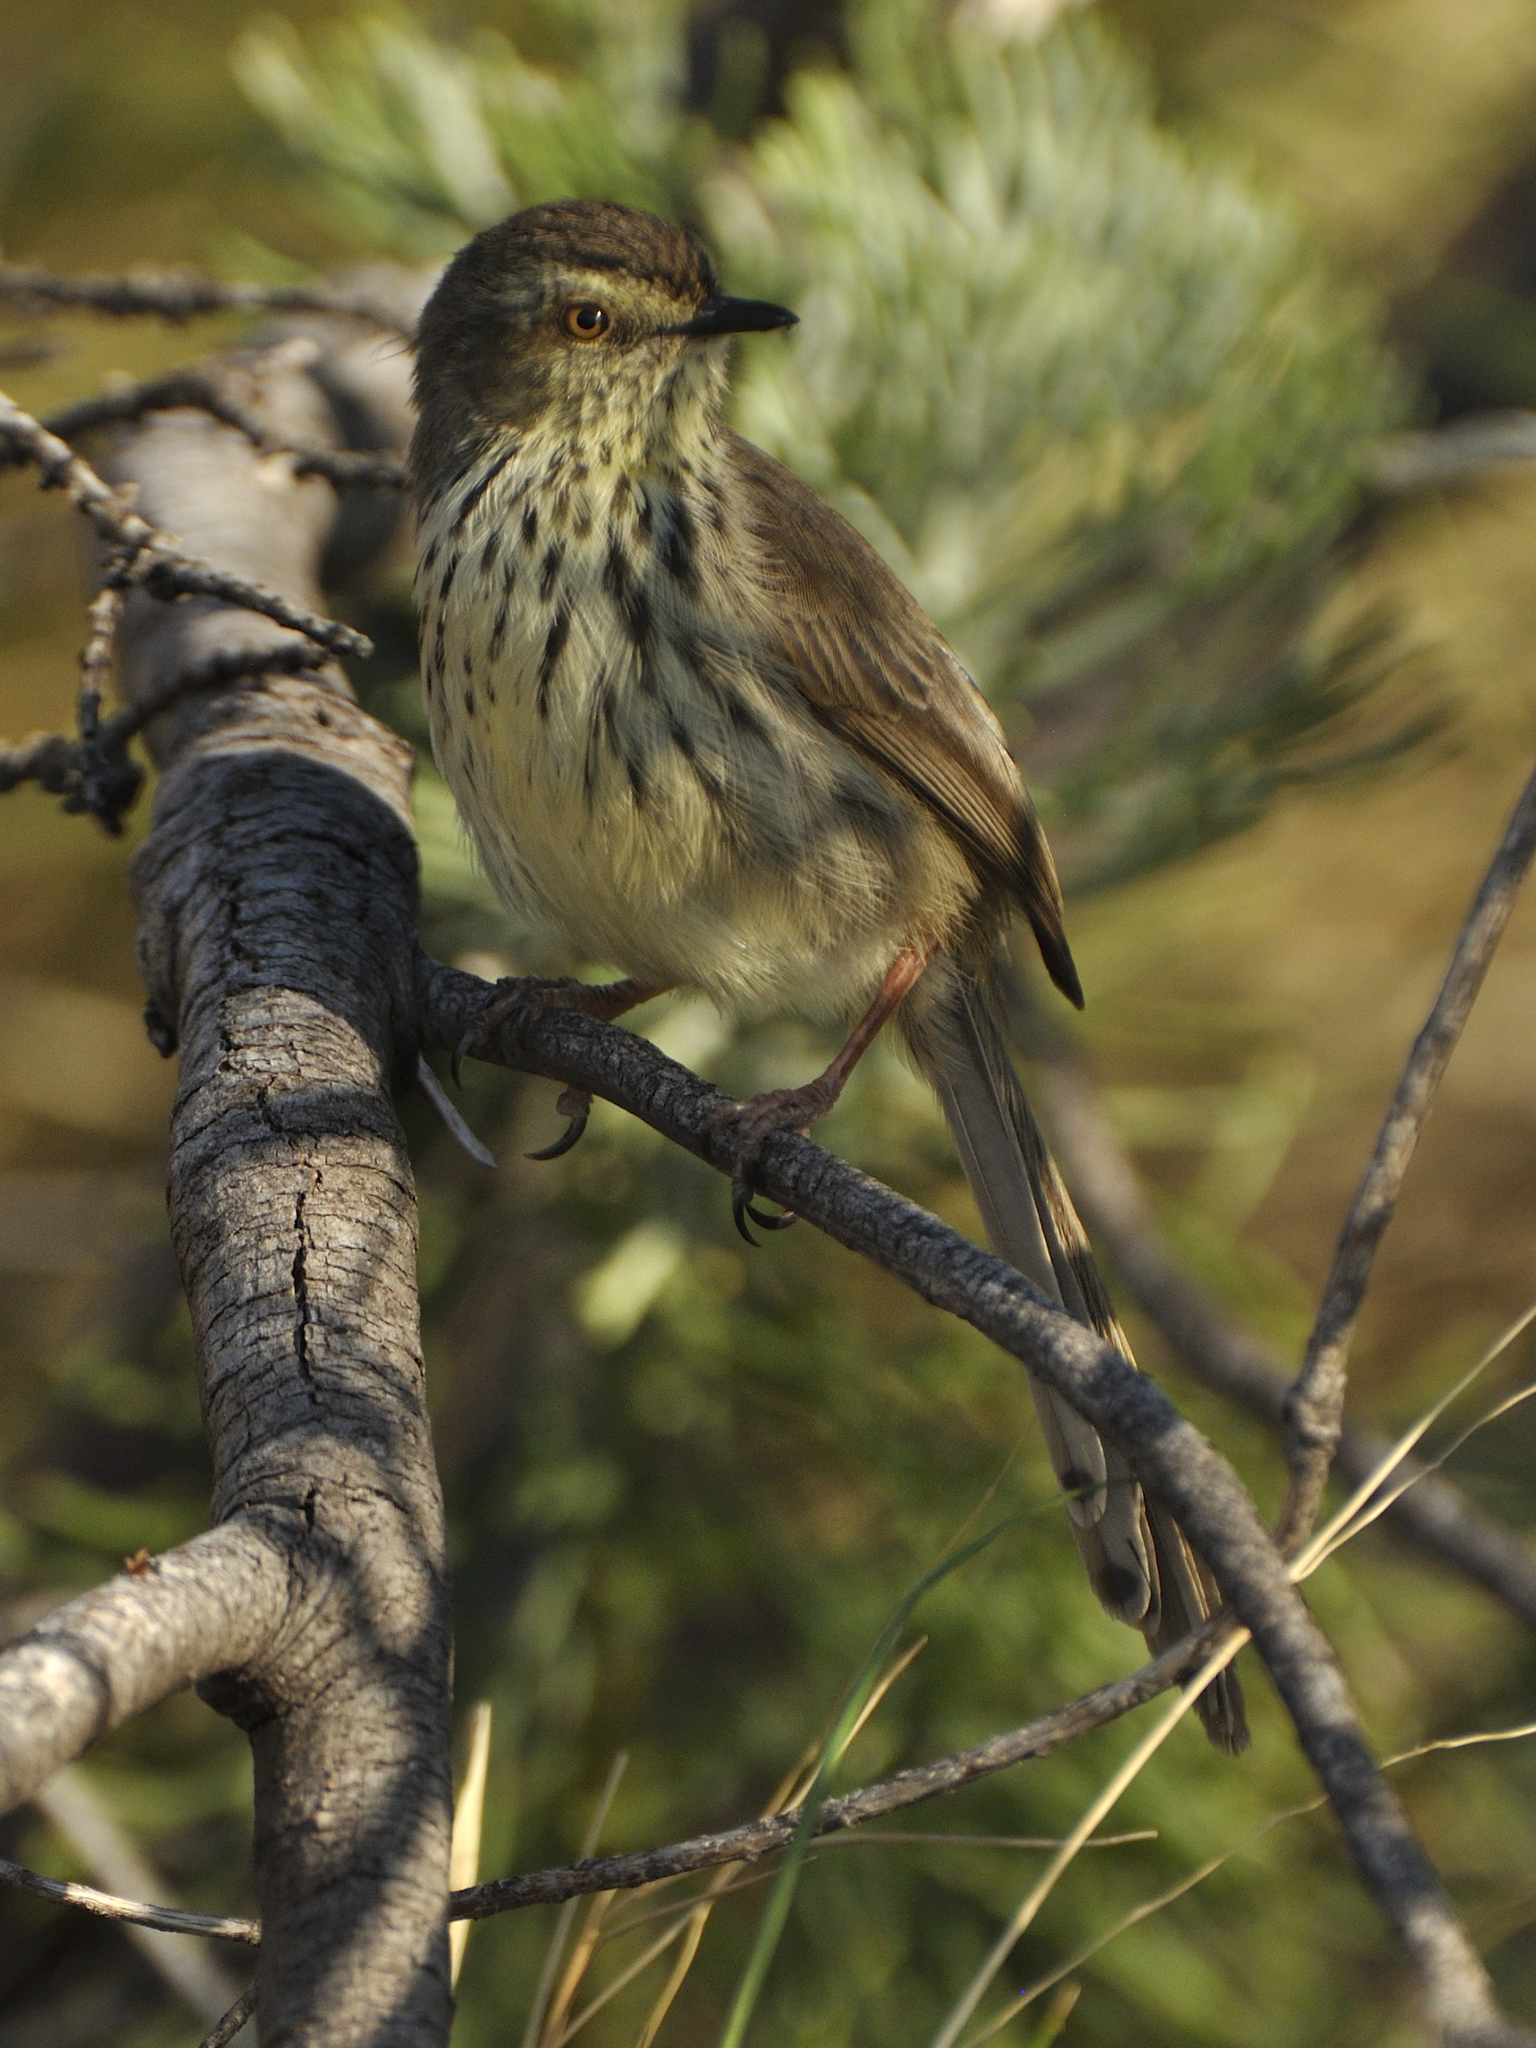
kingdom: Animalia
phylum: Chordata
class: Aves
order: Passeriformes
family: Cisticolidae
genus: Prinia
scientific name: Prinia maculosa
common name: Karoo prinia
